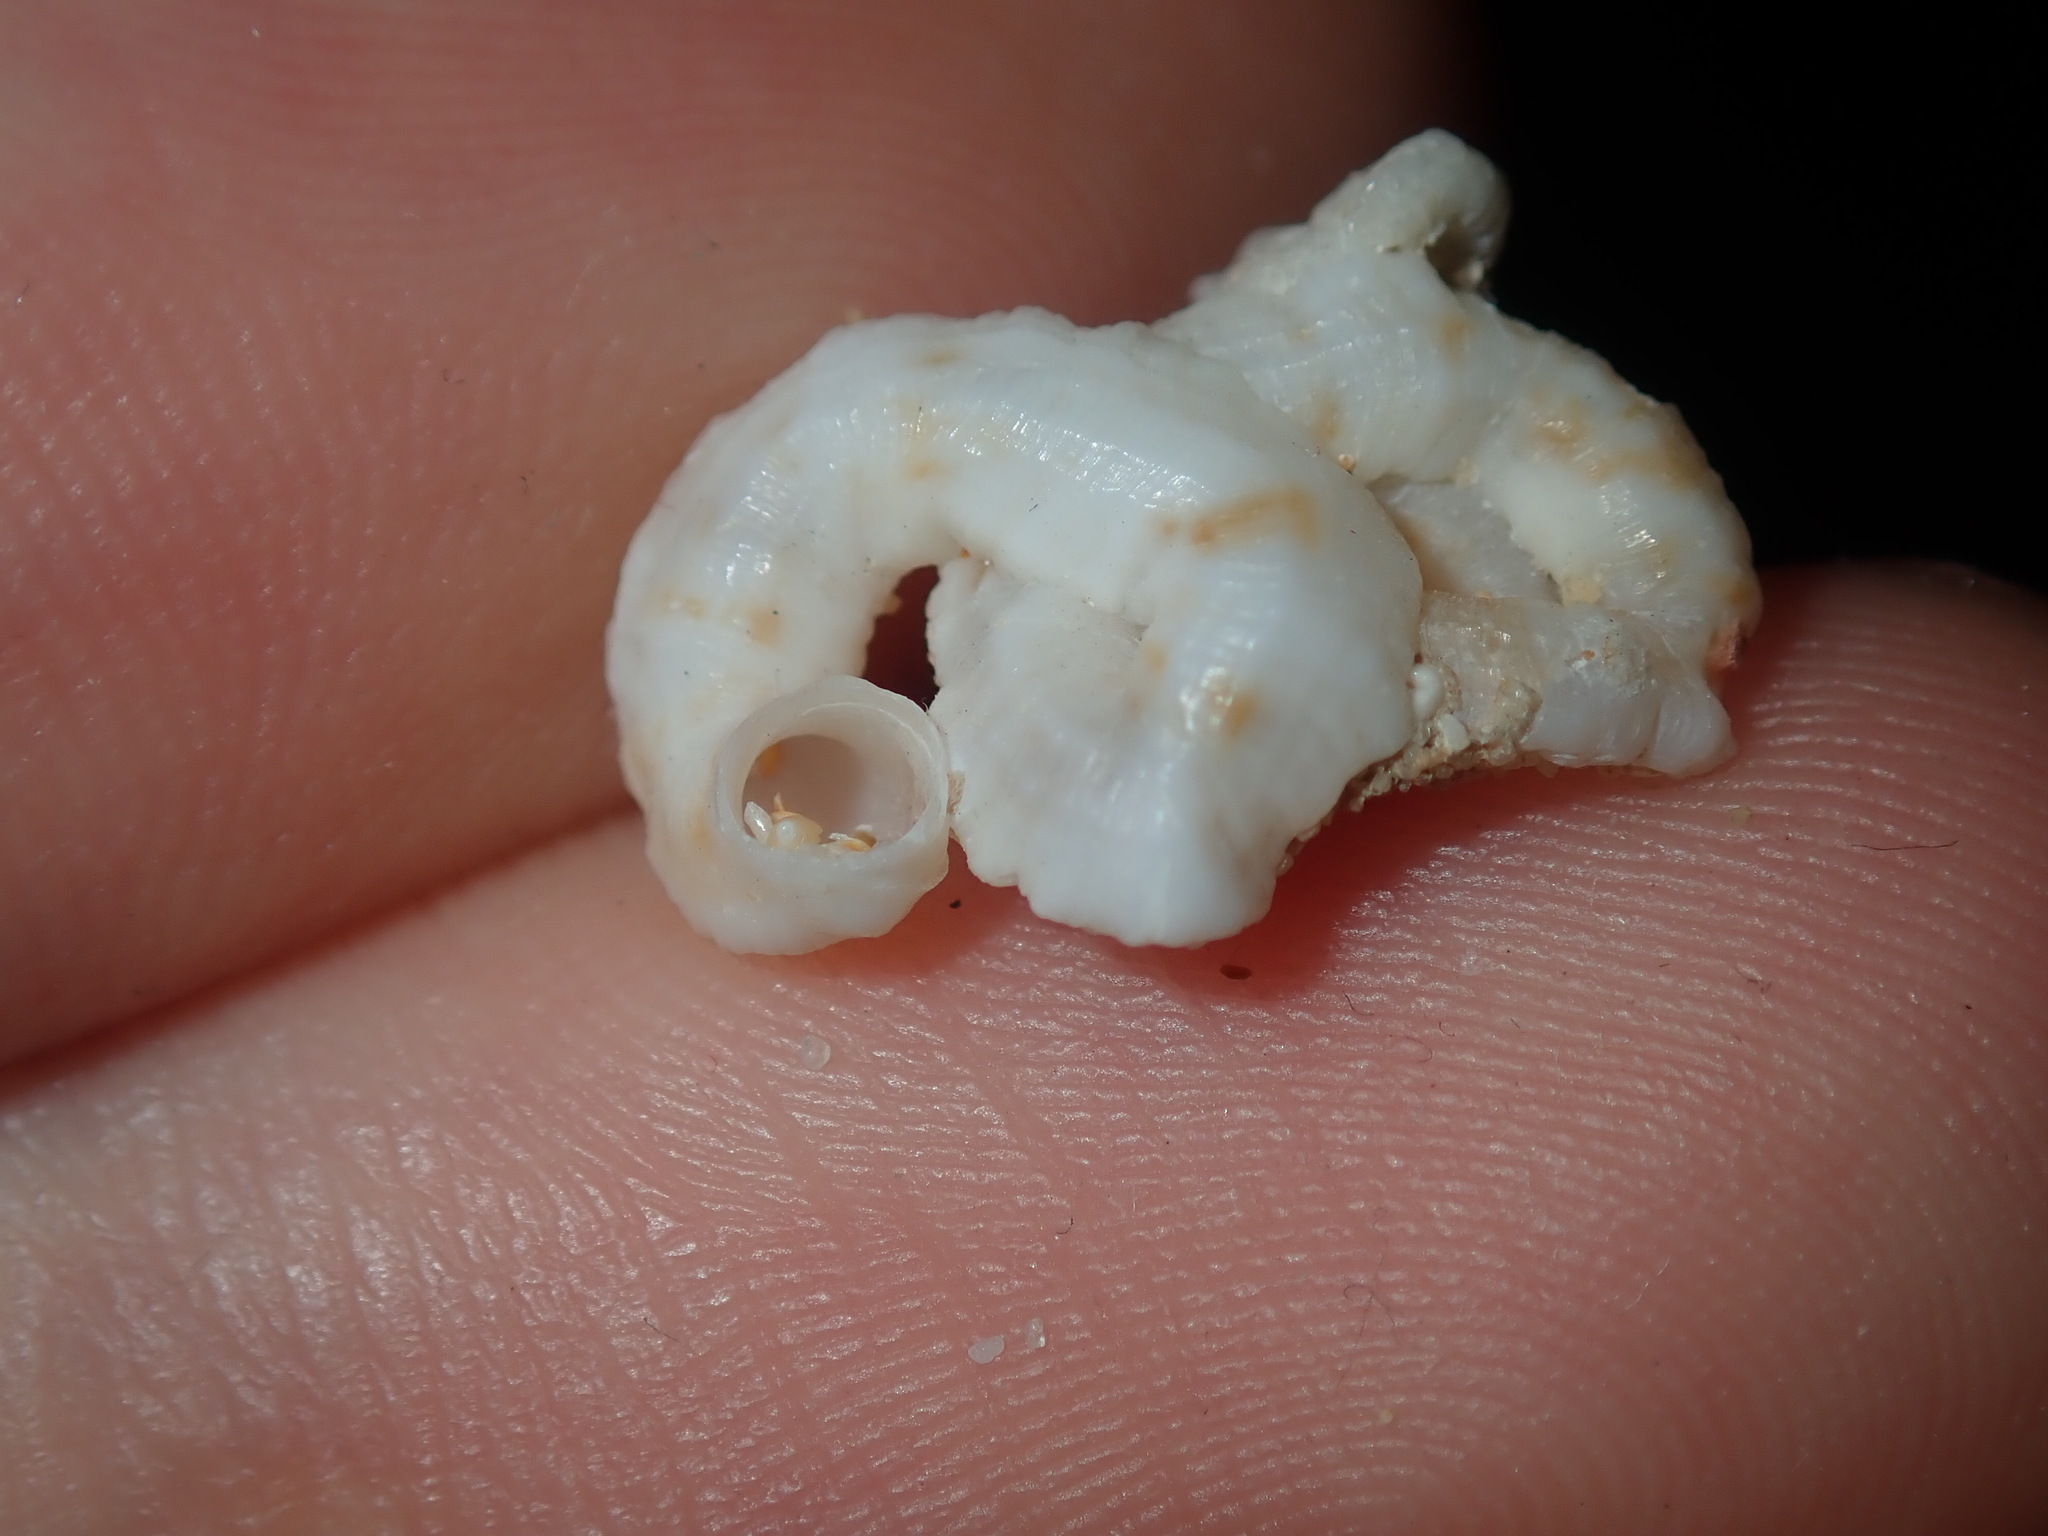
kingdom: Animalia
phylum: Mollusca
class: Gastropoda
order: Littorinimorpha
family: Vermetidae
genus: Thylacodes
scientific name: Thylacodes sipho
